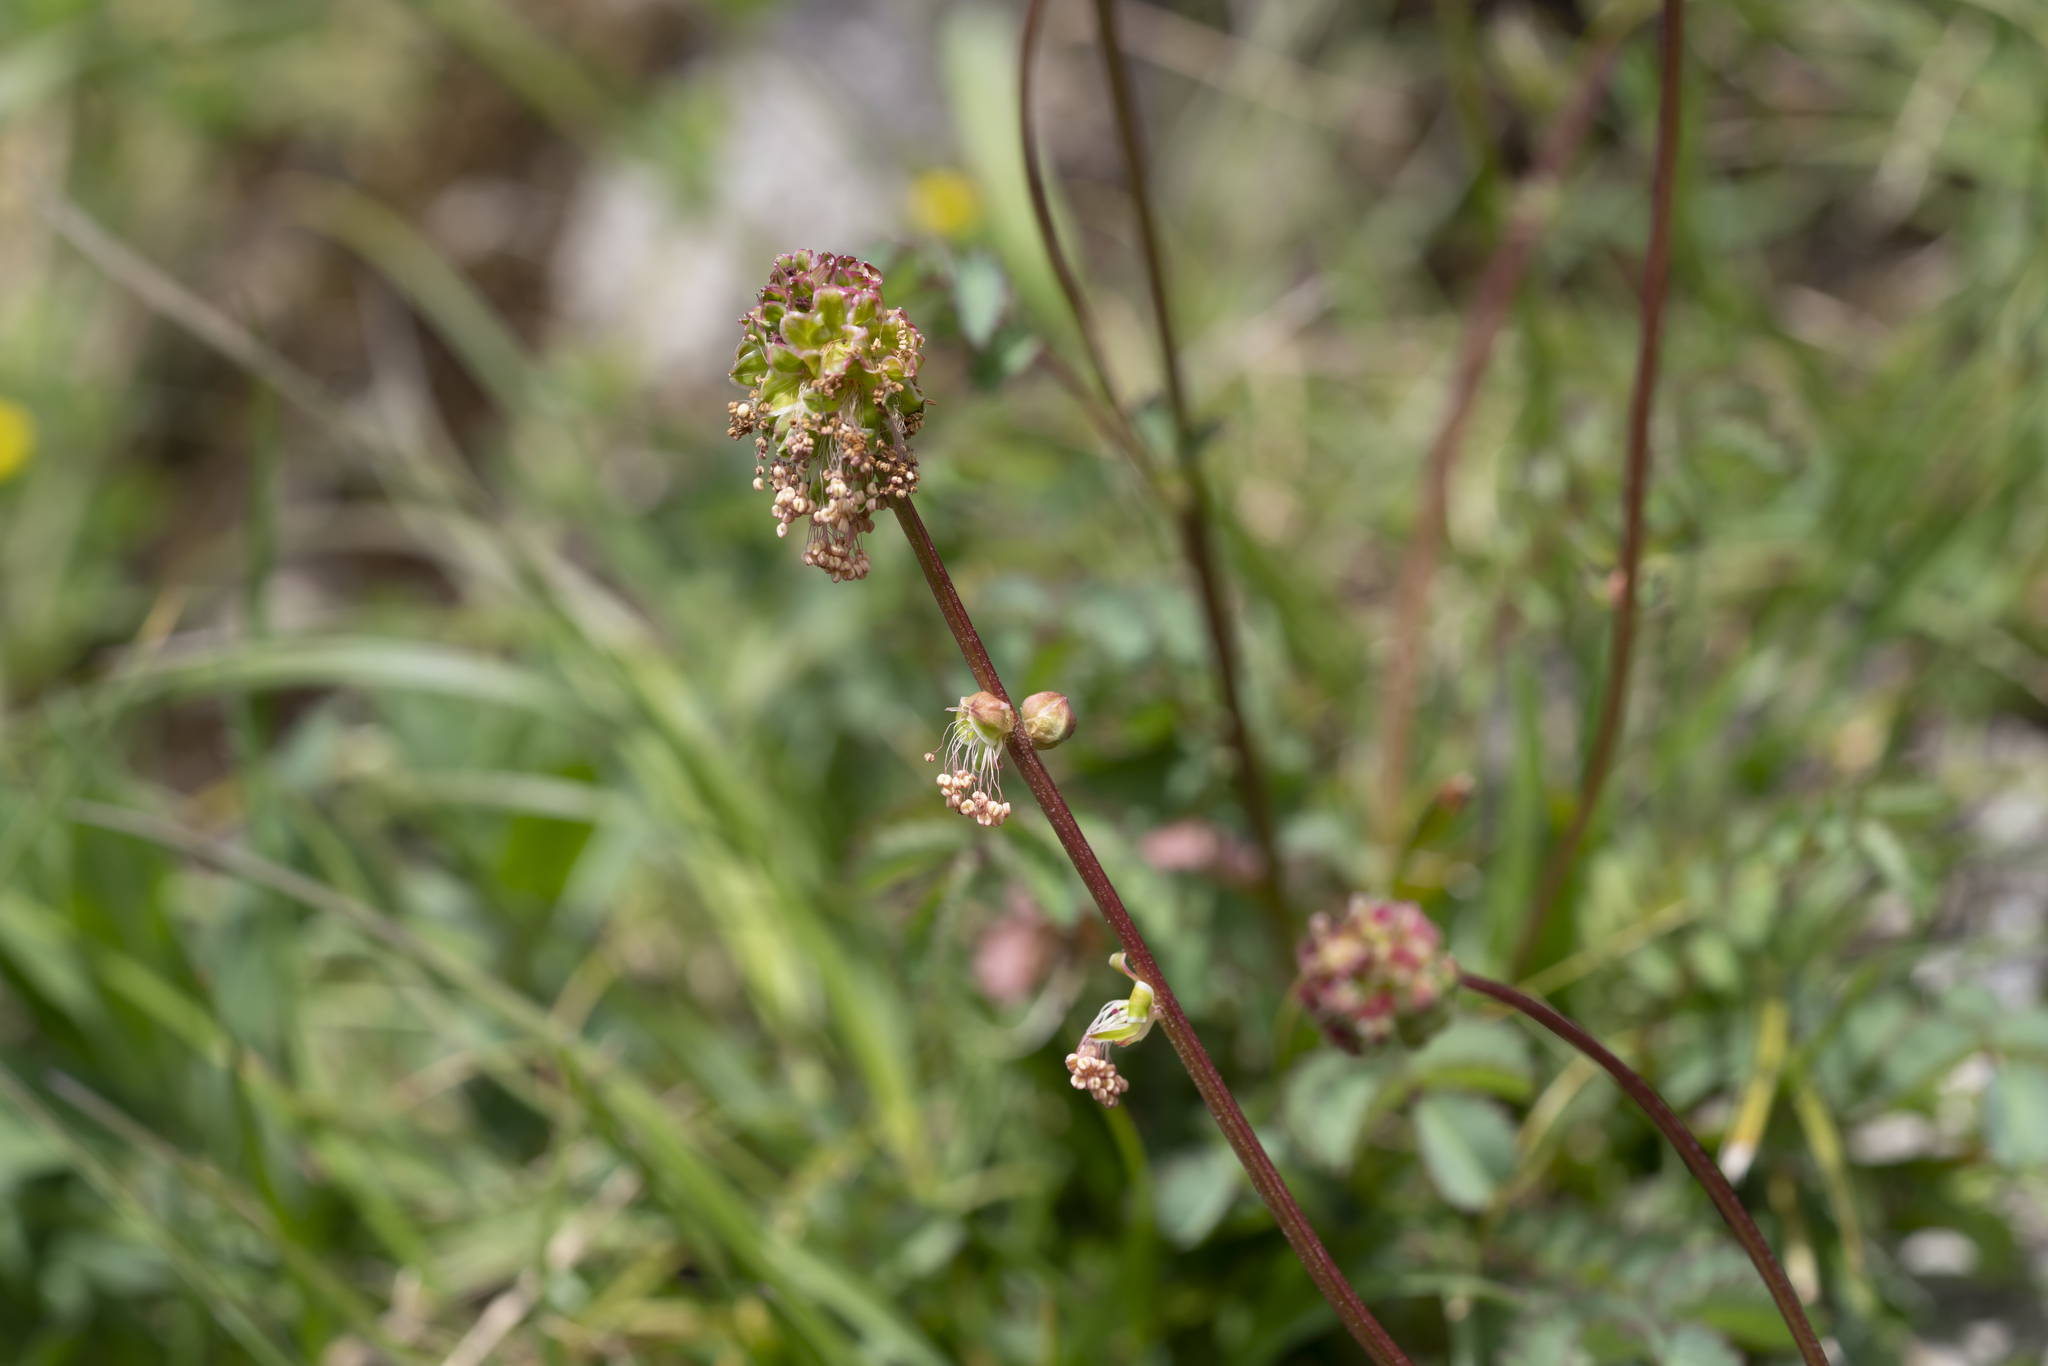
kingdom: Plantae
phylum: Tracheophyta
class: Magnoliopsida
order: Rosales
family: Rosaceae
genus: Poterium
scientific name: Poterium sanguisorba
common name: Salad burnet
